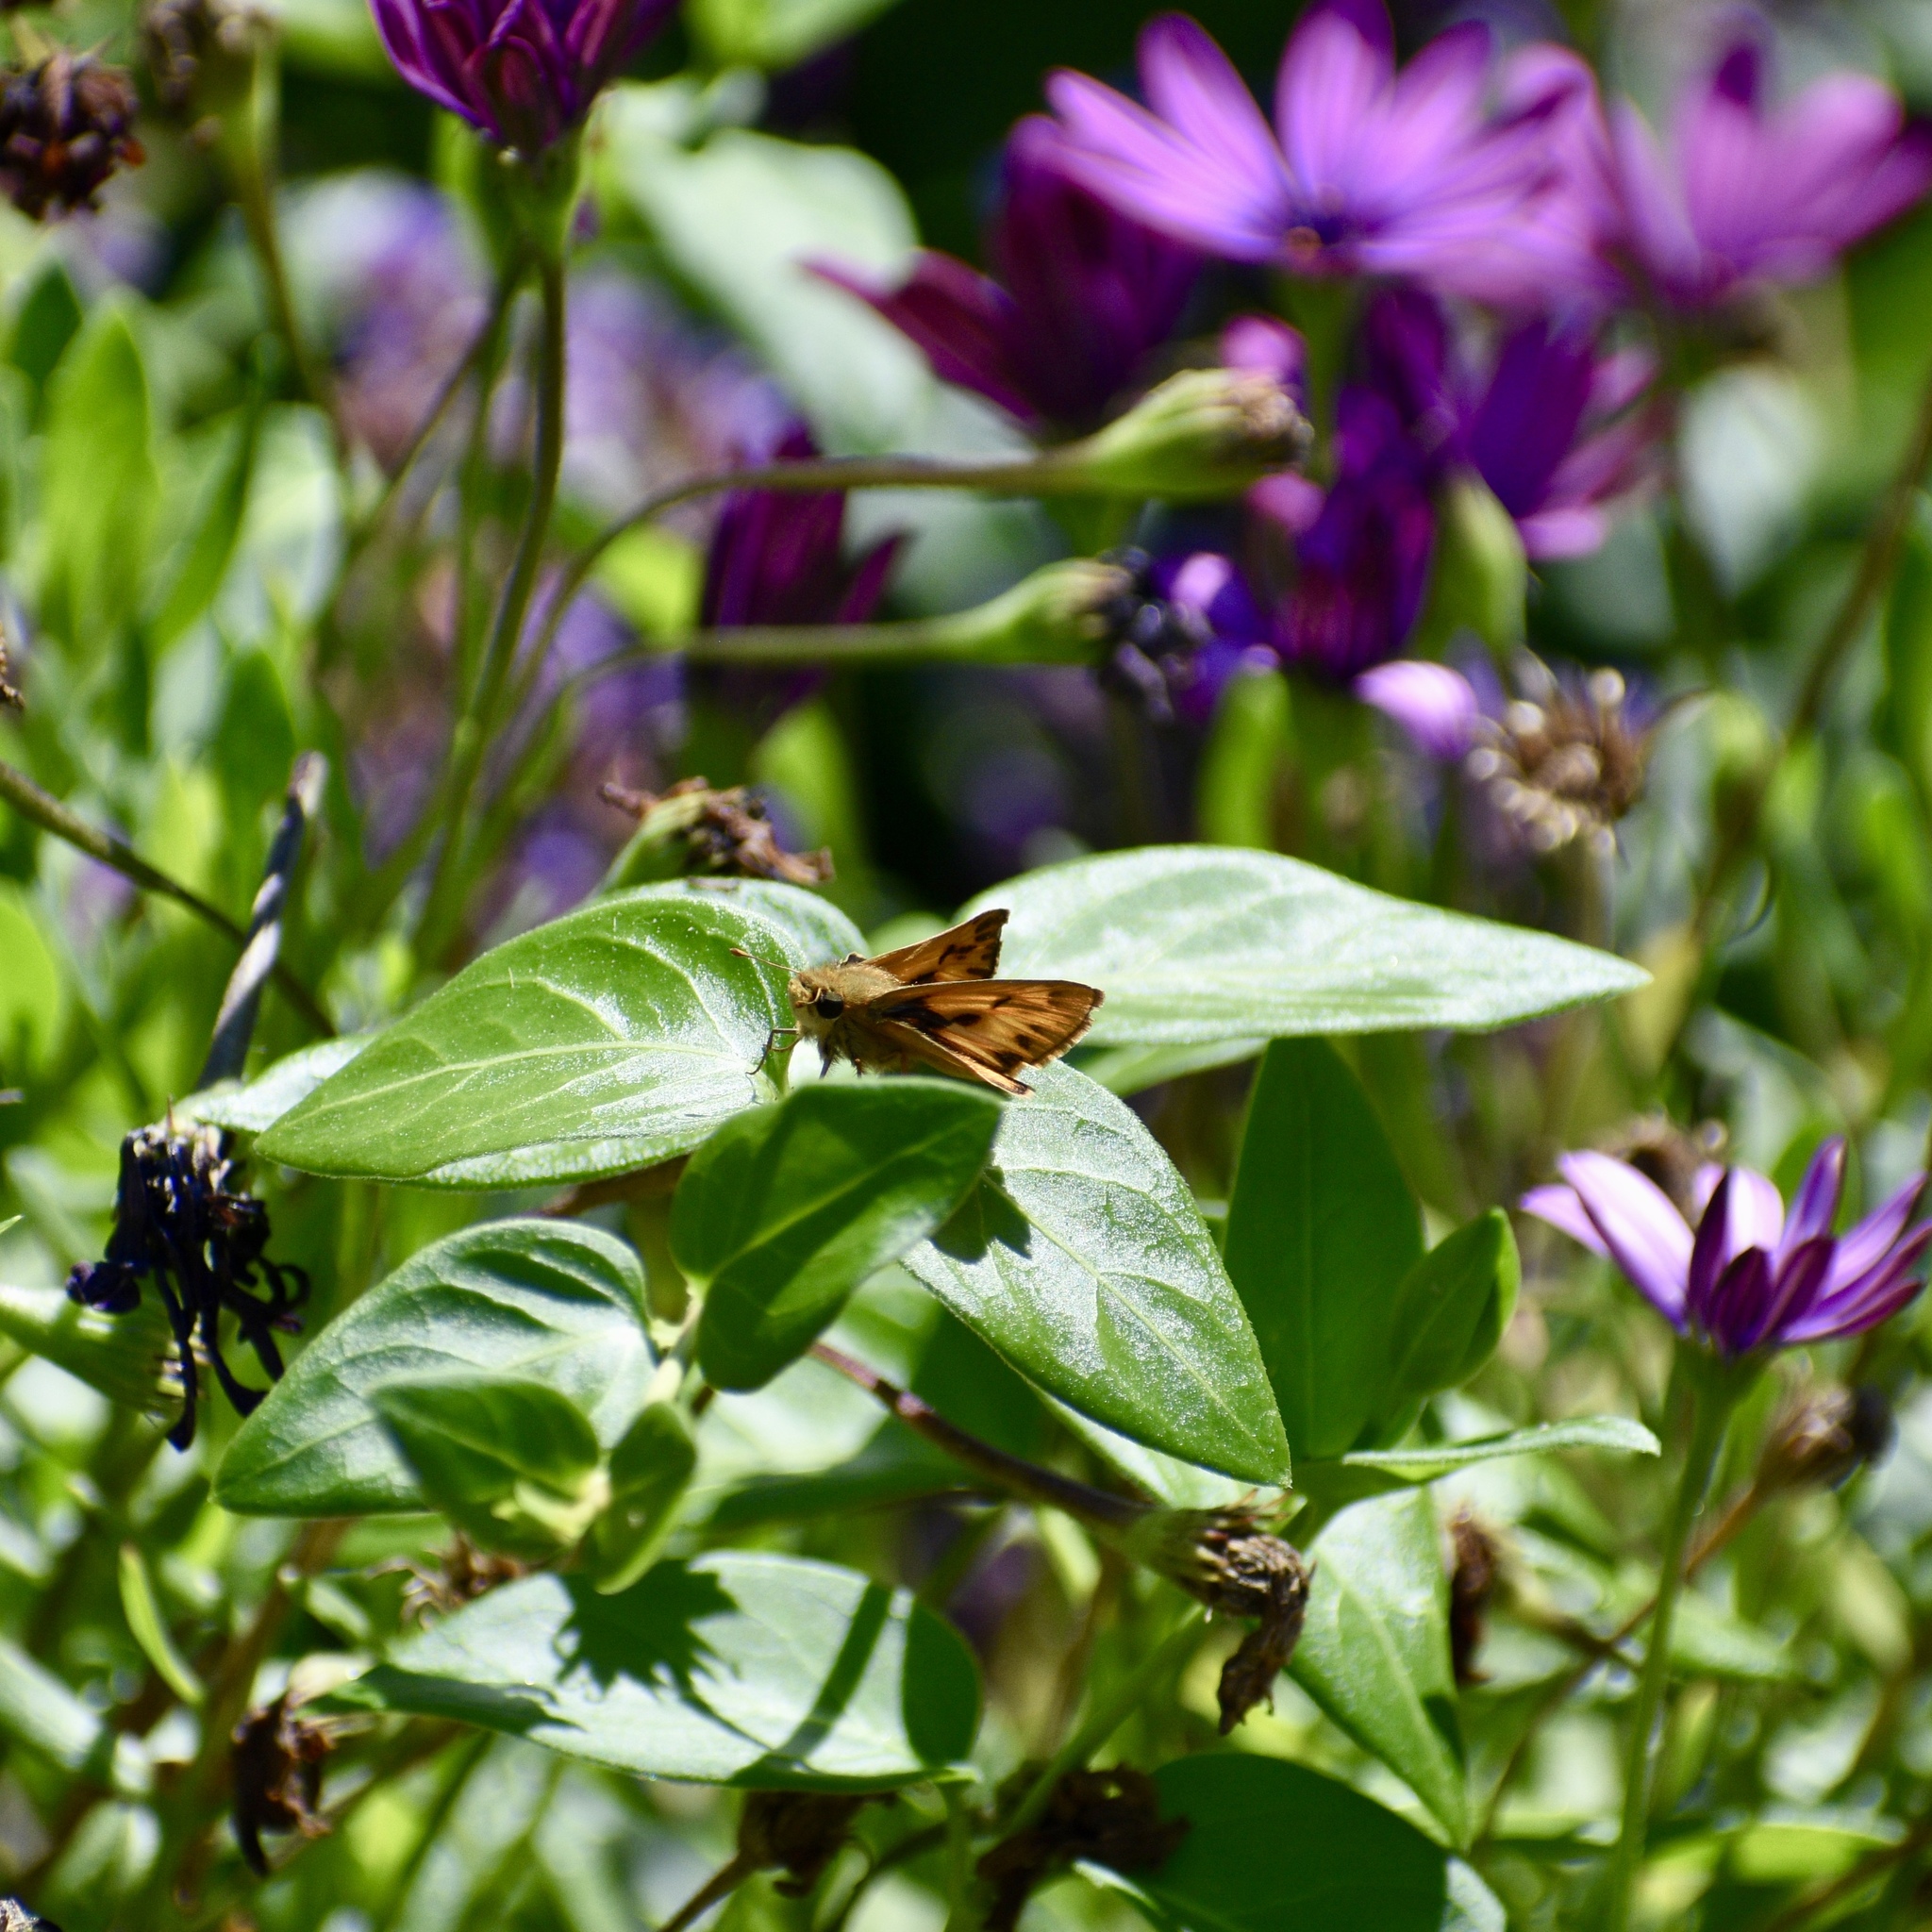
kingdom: Animalia
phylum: Arthropoda
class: Insecta
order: Lepidoptera
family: Hesperiidae
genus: Hylephila
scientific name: Hylephila phyleus
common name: Fiery skipper
